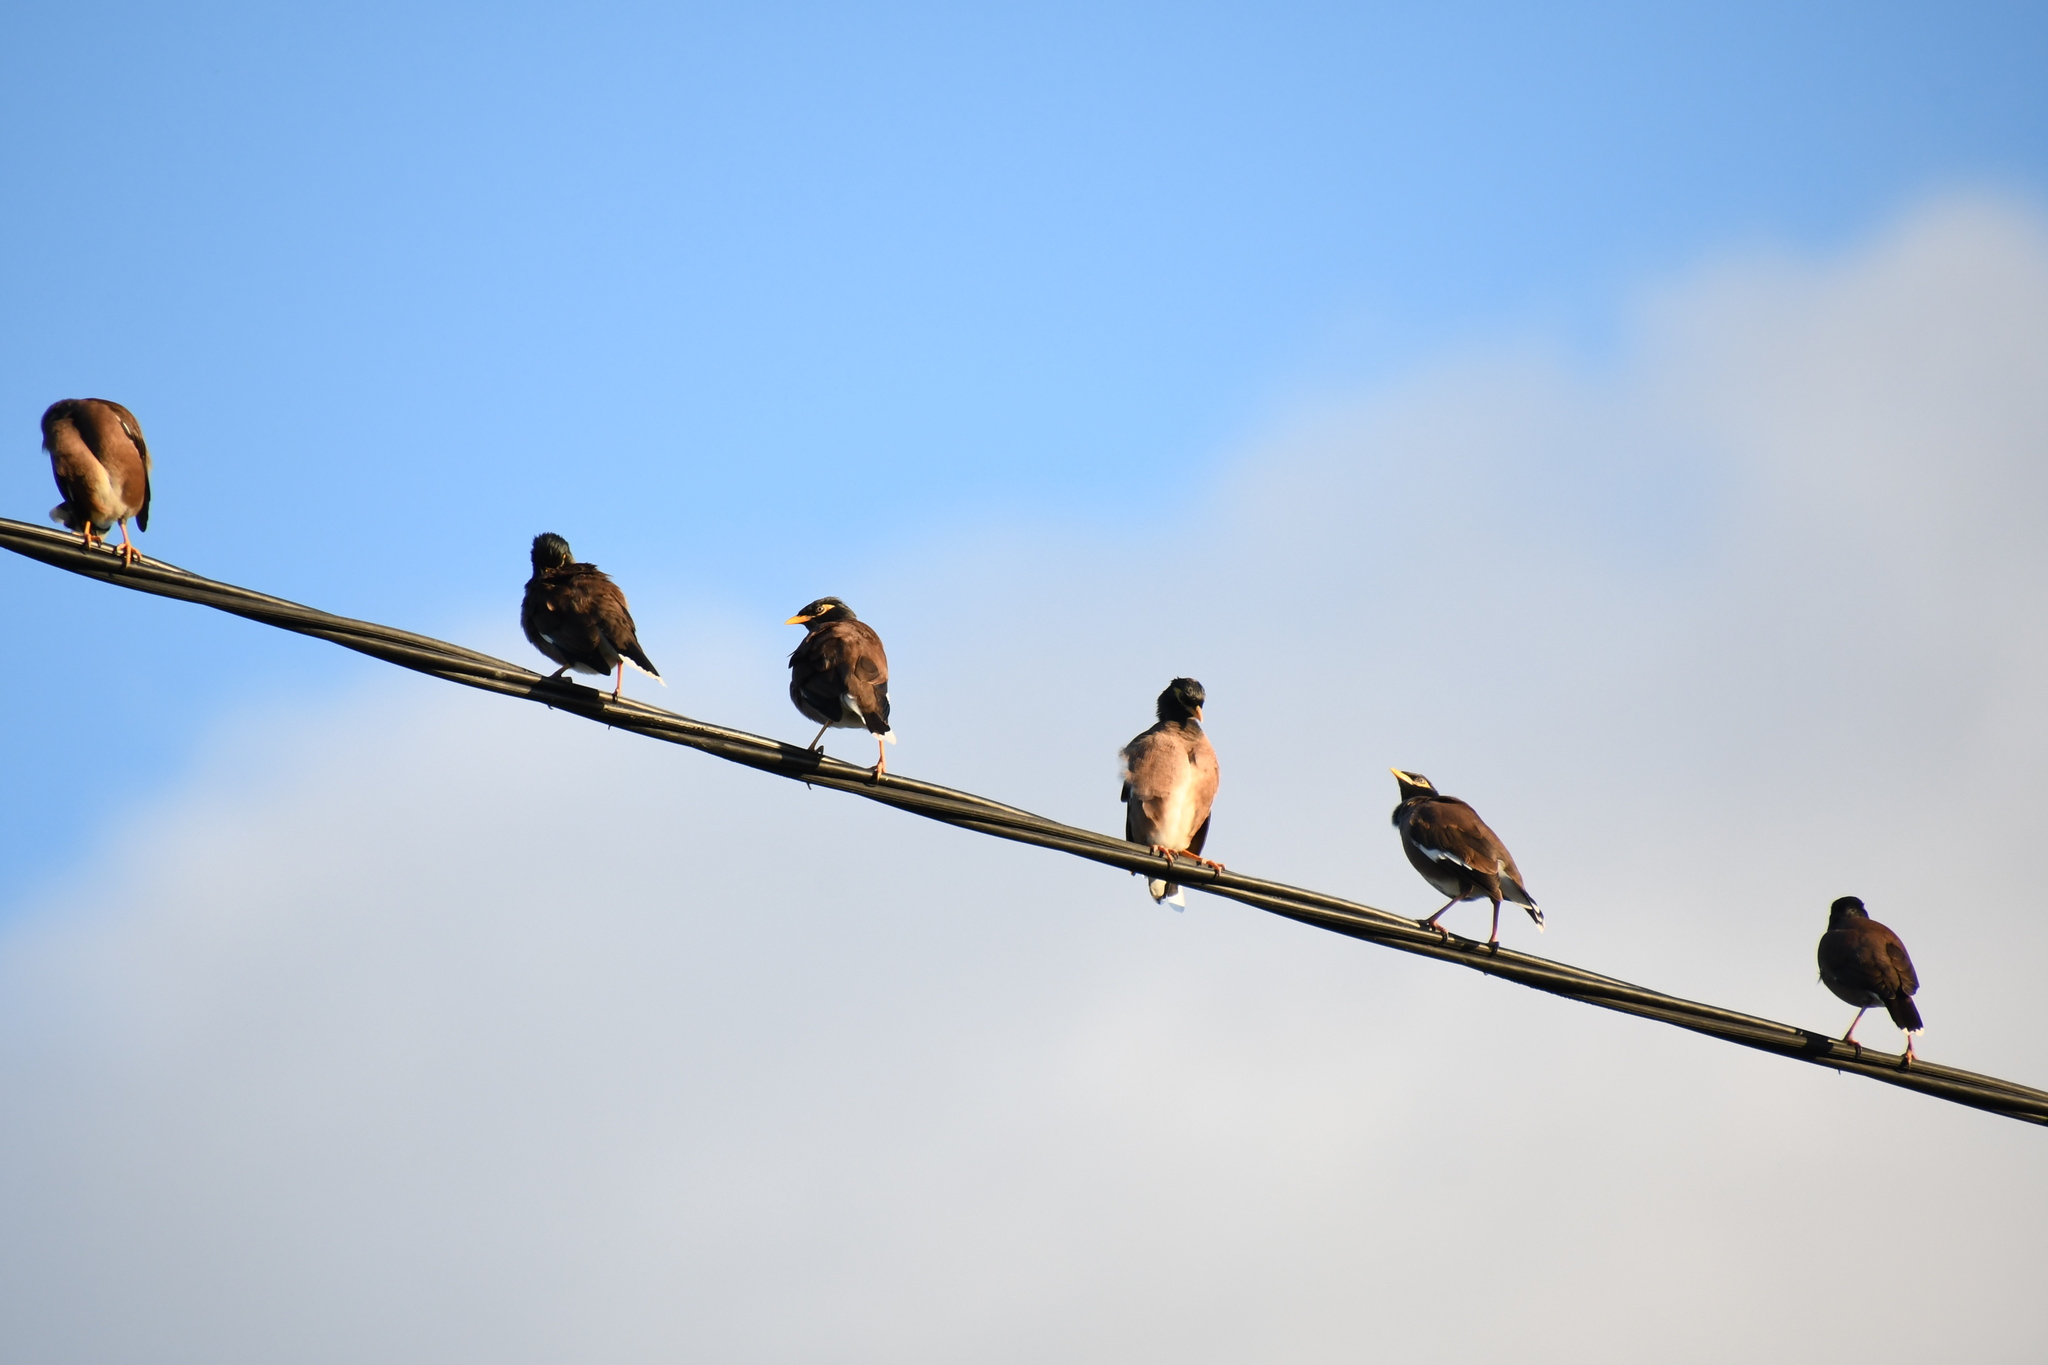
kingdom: Animalia
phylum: Chordata
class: Aves
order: Passeriformes
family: Sturnidae
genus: Acridotheres
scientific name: Acridotheres tristis
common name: Common myna
